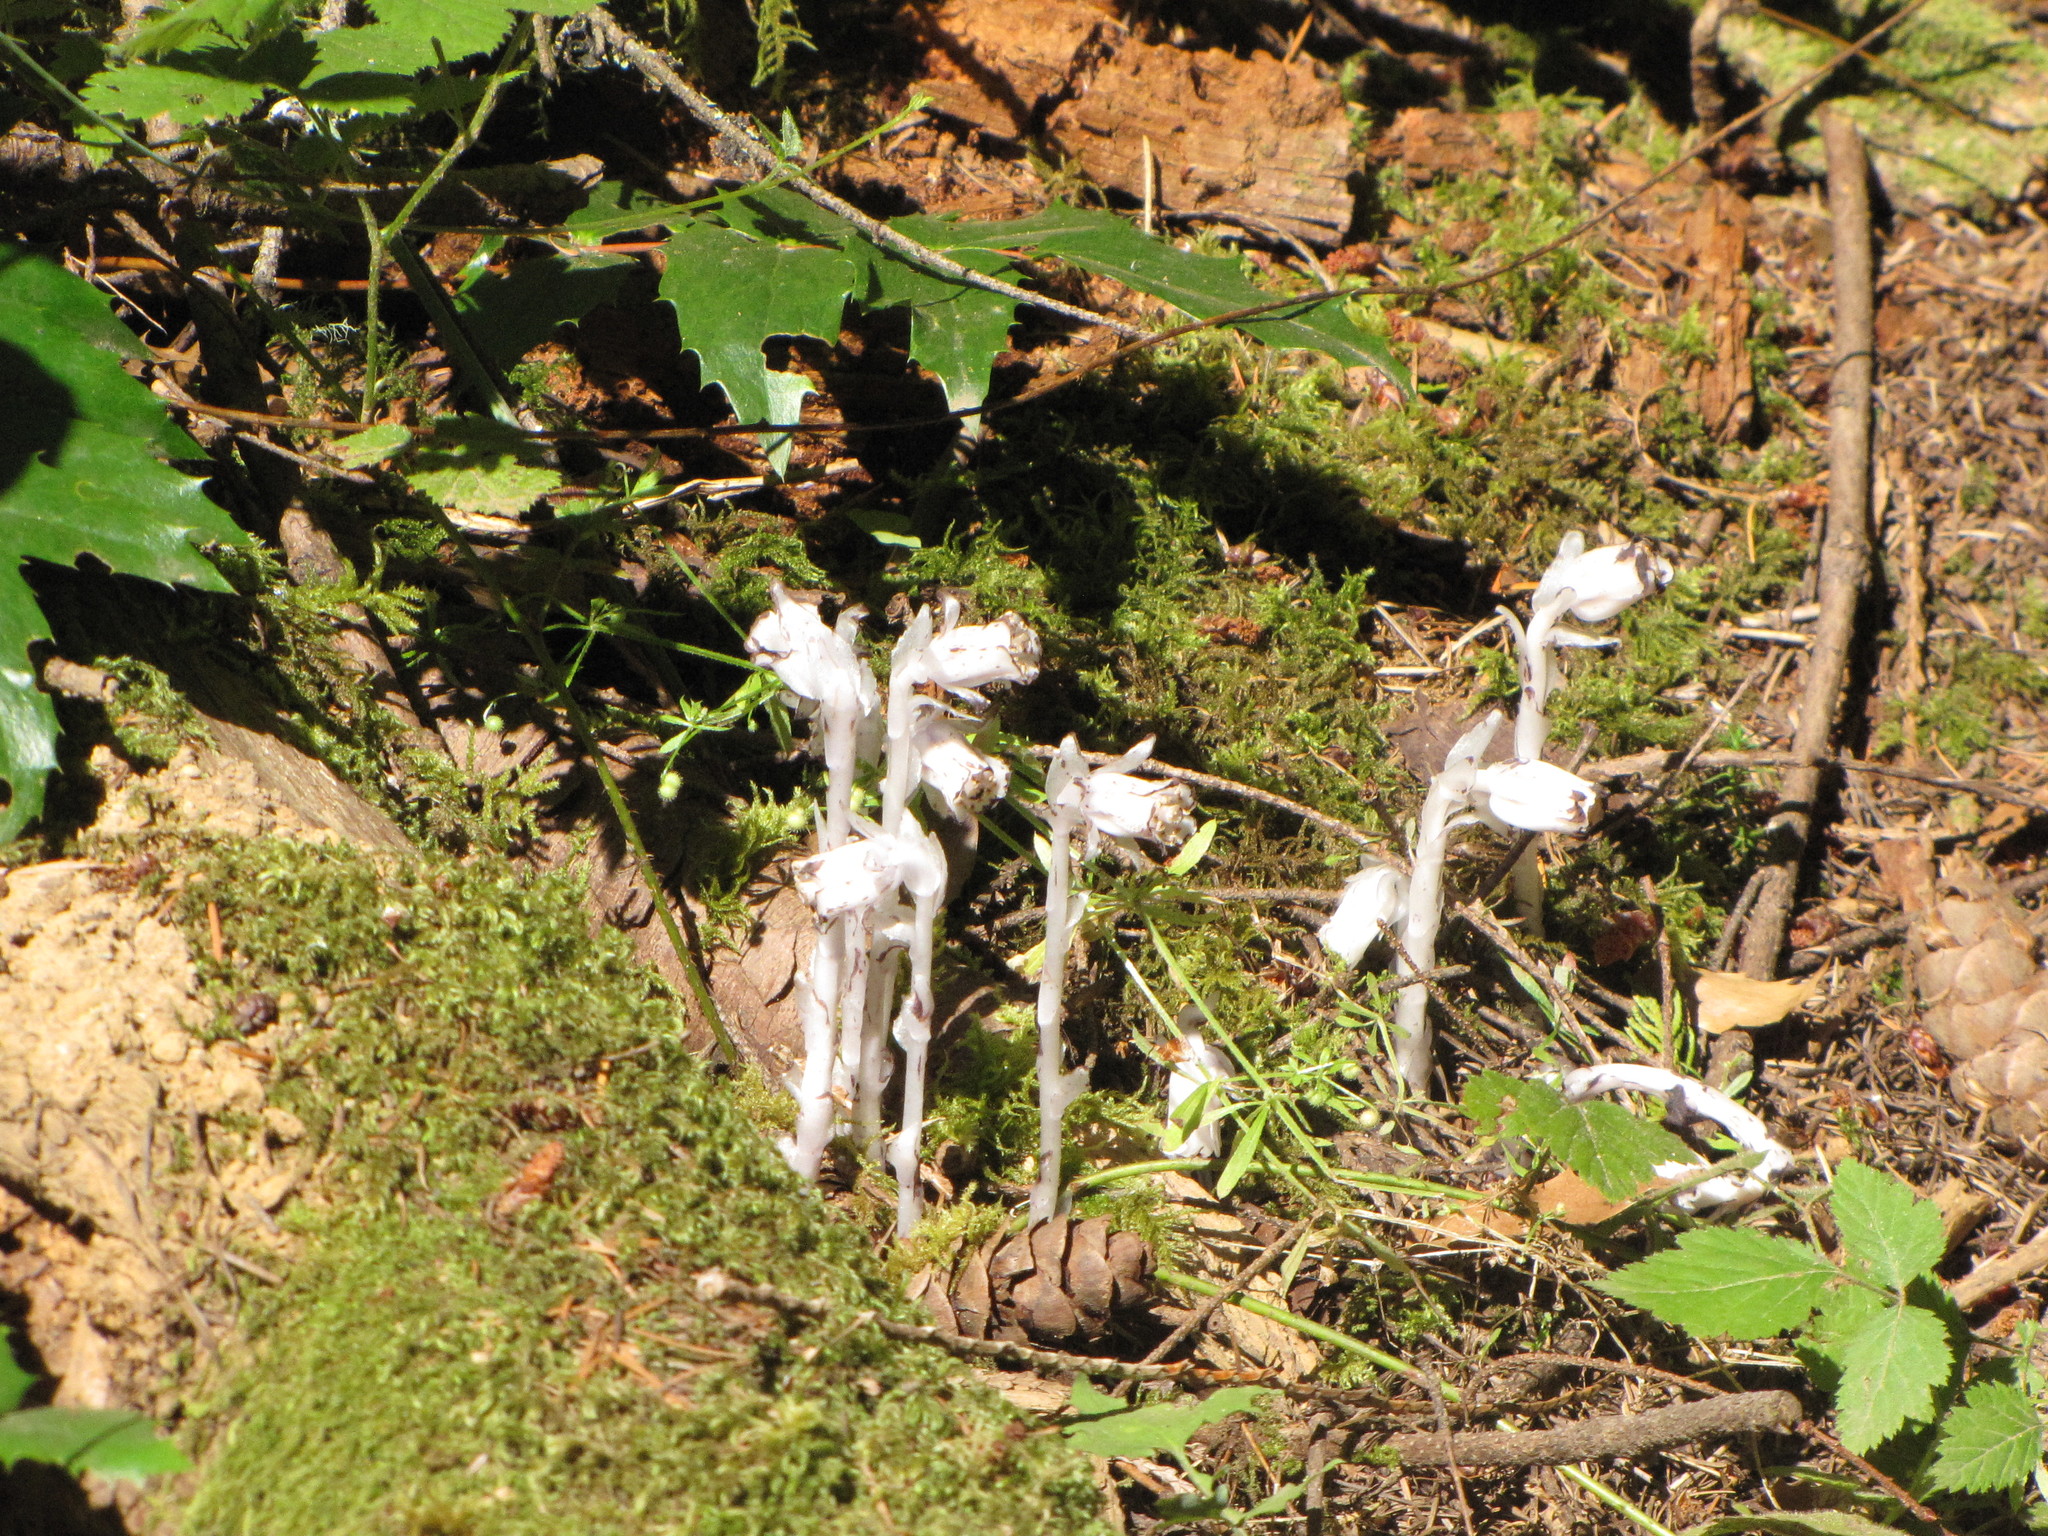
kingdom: Plantae
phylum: Tracheophyta
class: Magnoliopsida
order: Ericales
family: Ericaceae
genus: Monotropa
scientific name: Monotropa uniflora
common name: Convulsion root
